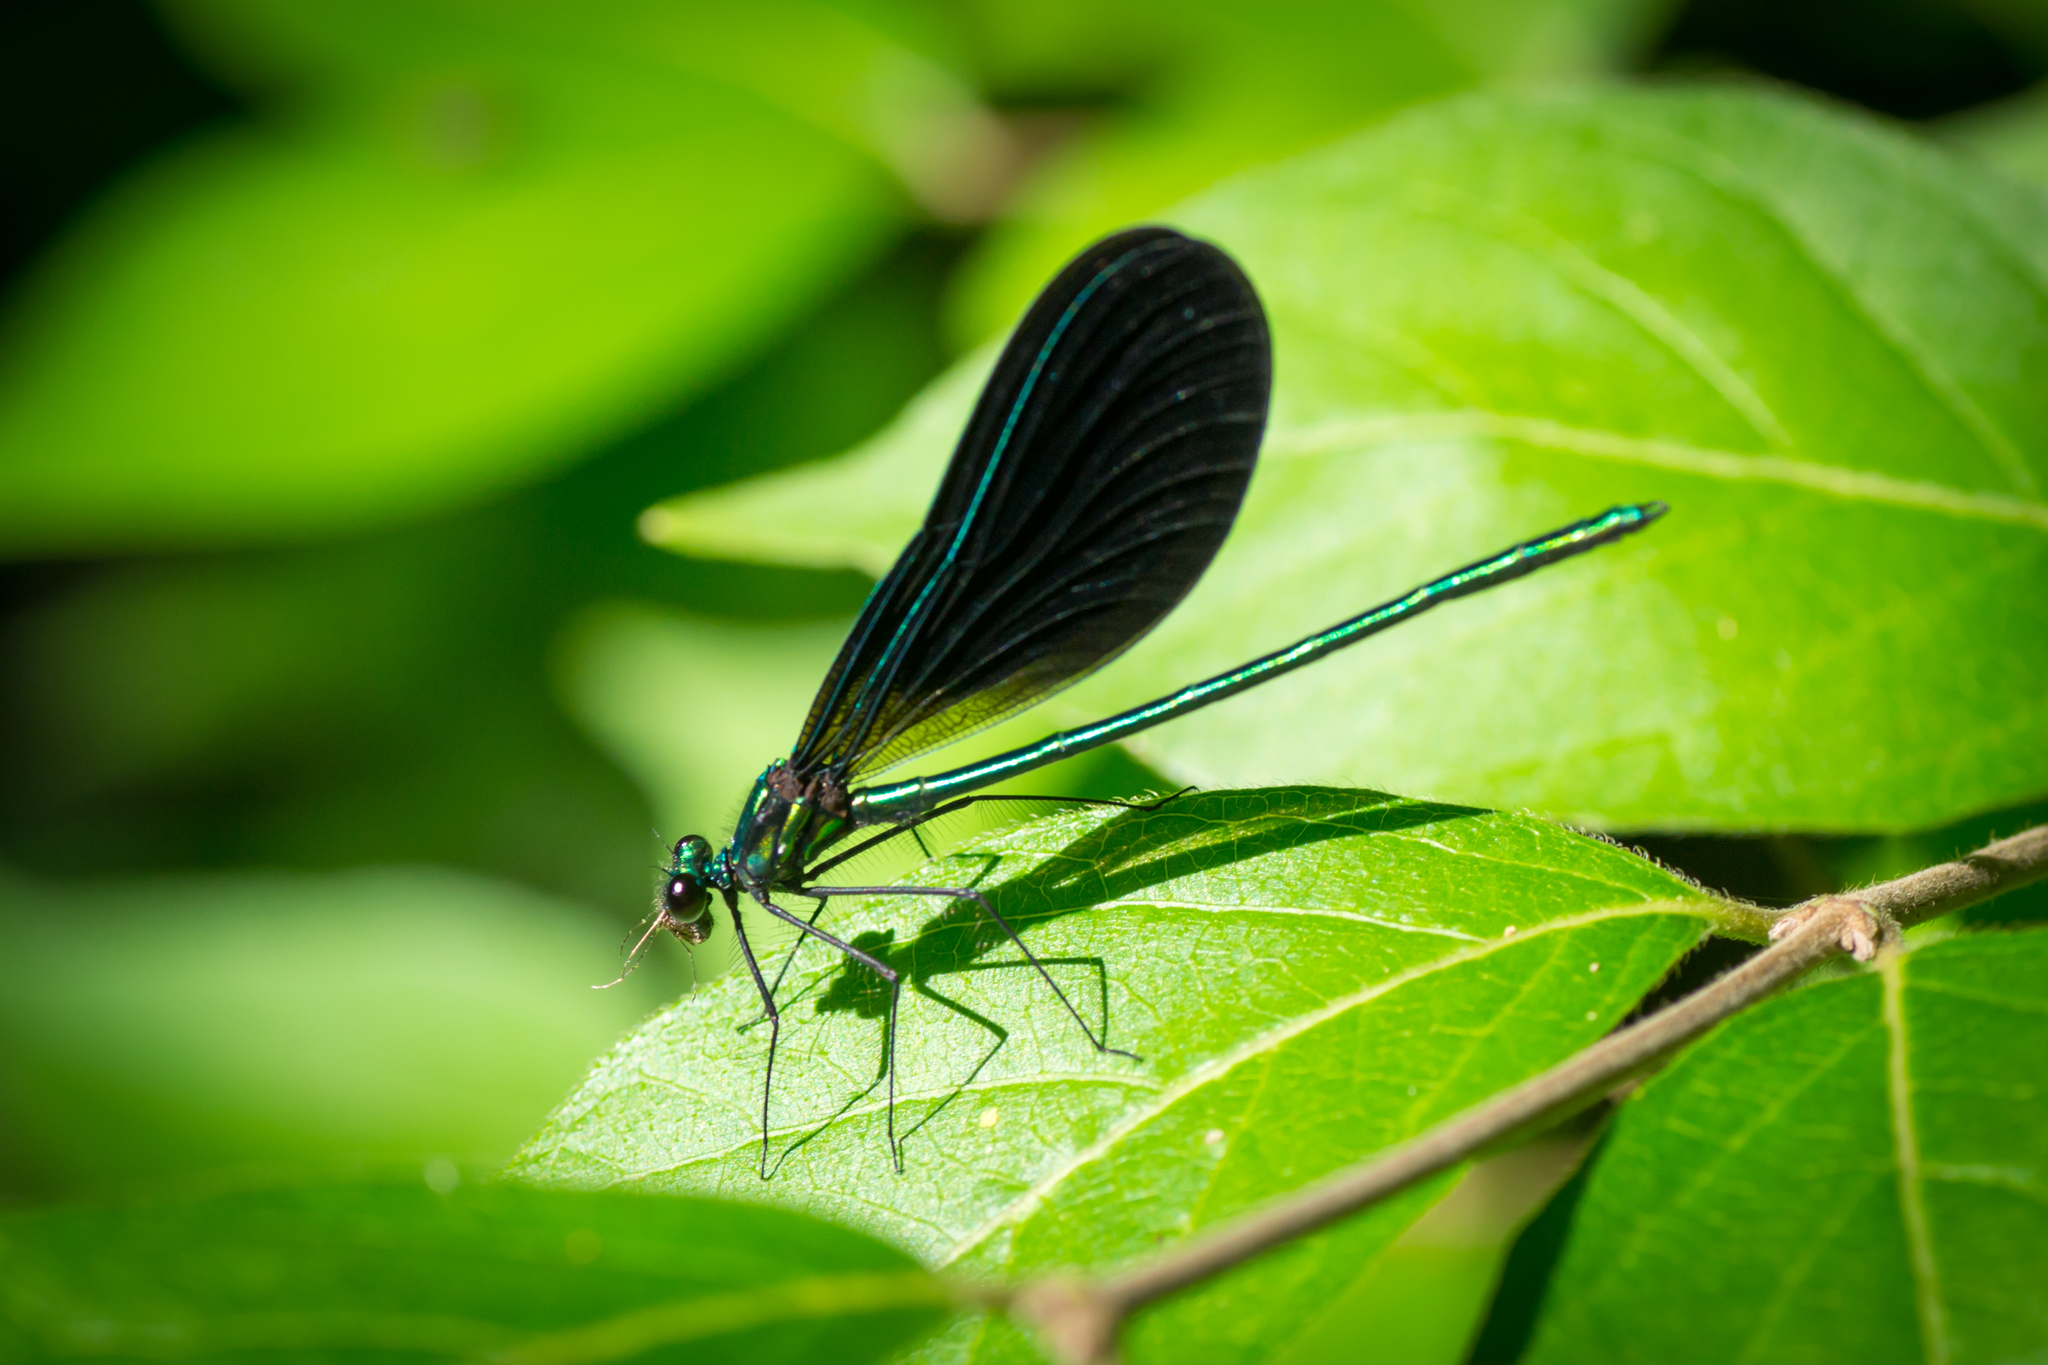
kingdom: Animalia
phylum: Arthropoda
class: Insecta
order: Odonata
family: Calopterygidae
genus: Calopteryx
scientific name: Calopteryx maculata
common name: Ebony jewelwing
